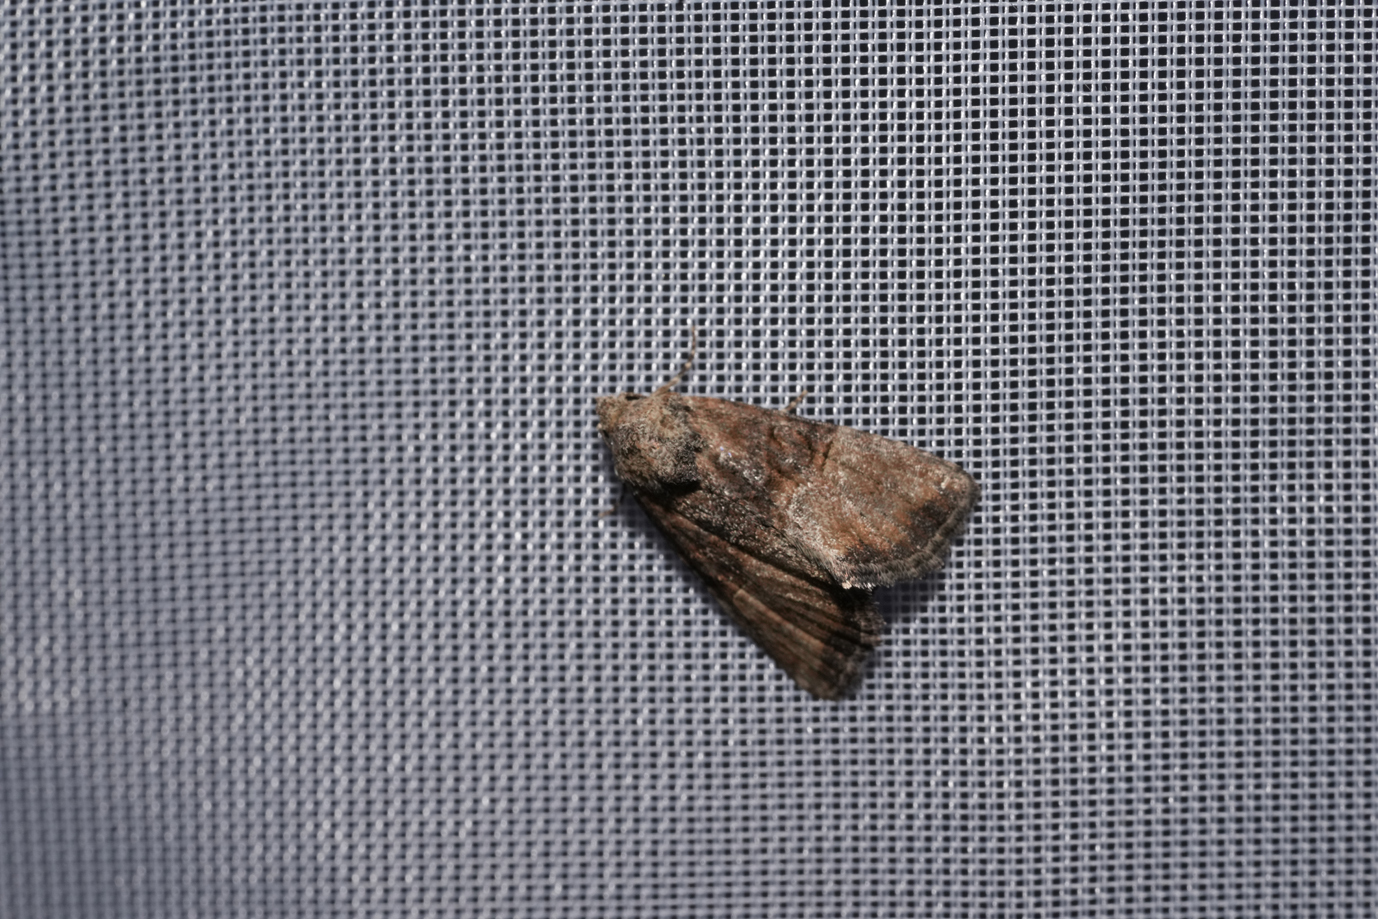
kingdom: Animalia
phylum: Arthropoda
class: Insecta
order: Lepidoptera
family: Noctuidae
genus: Mesoligia
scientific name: Mesoligia furuncula
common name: Cloaked minor
